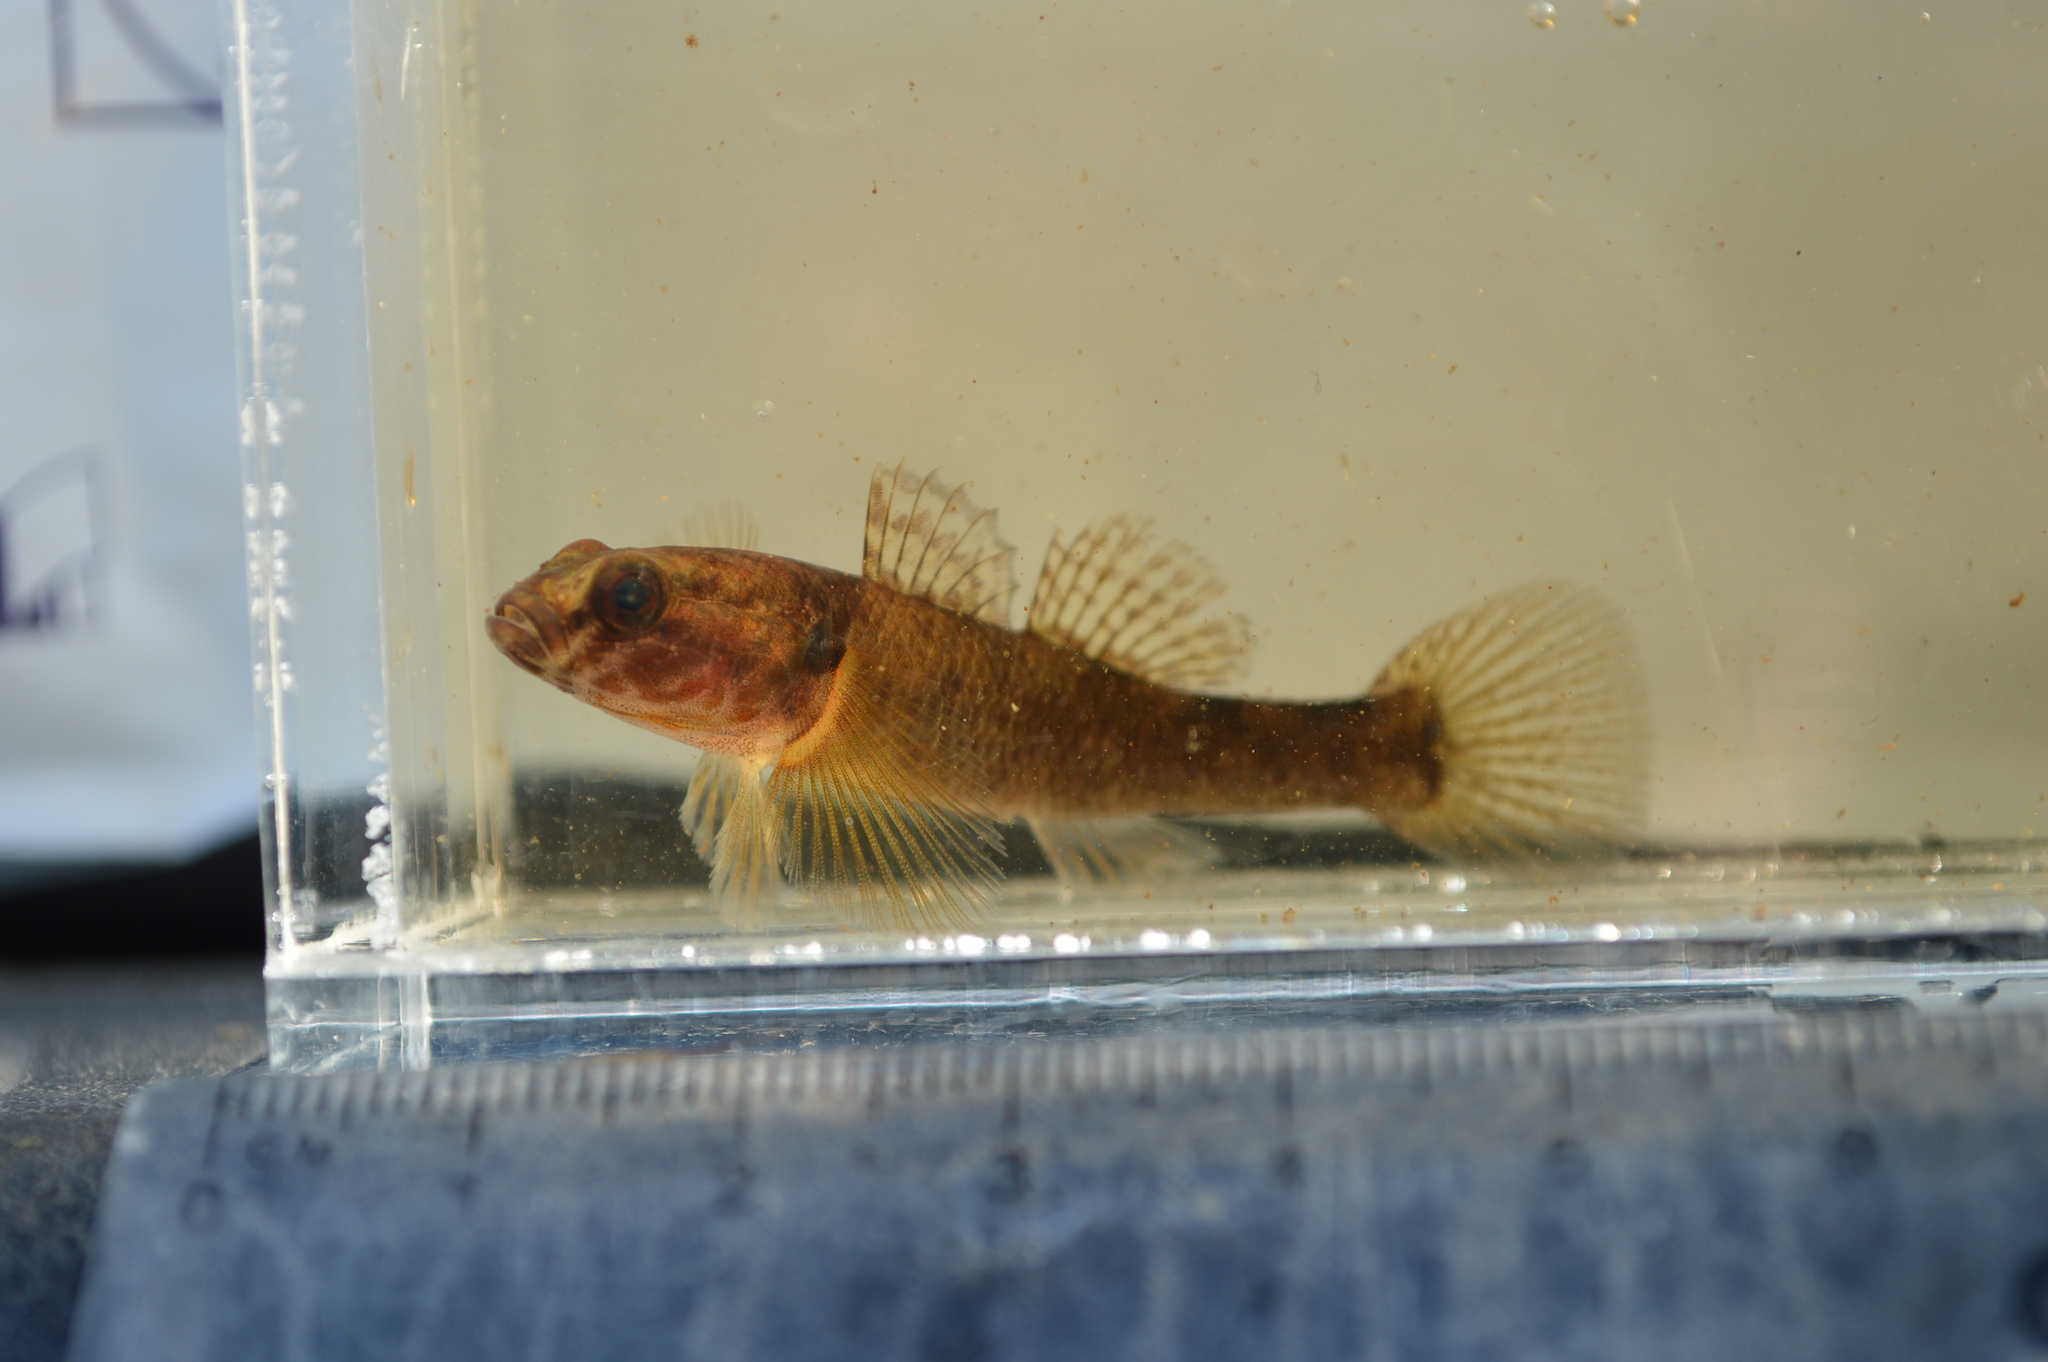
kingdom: Animalia
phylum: Chordata
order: Perciformes
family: Eleotridae
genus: Gobiomorphus
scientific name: Gobiomorphus huttoni
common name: Redfin bully
